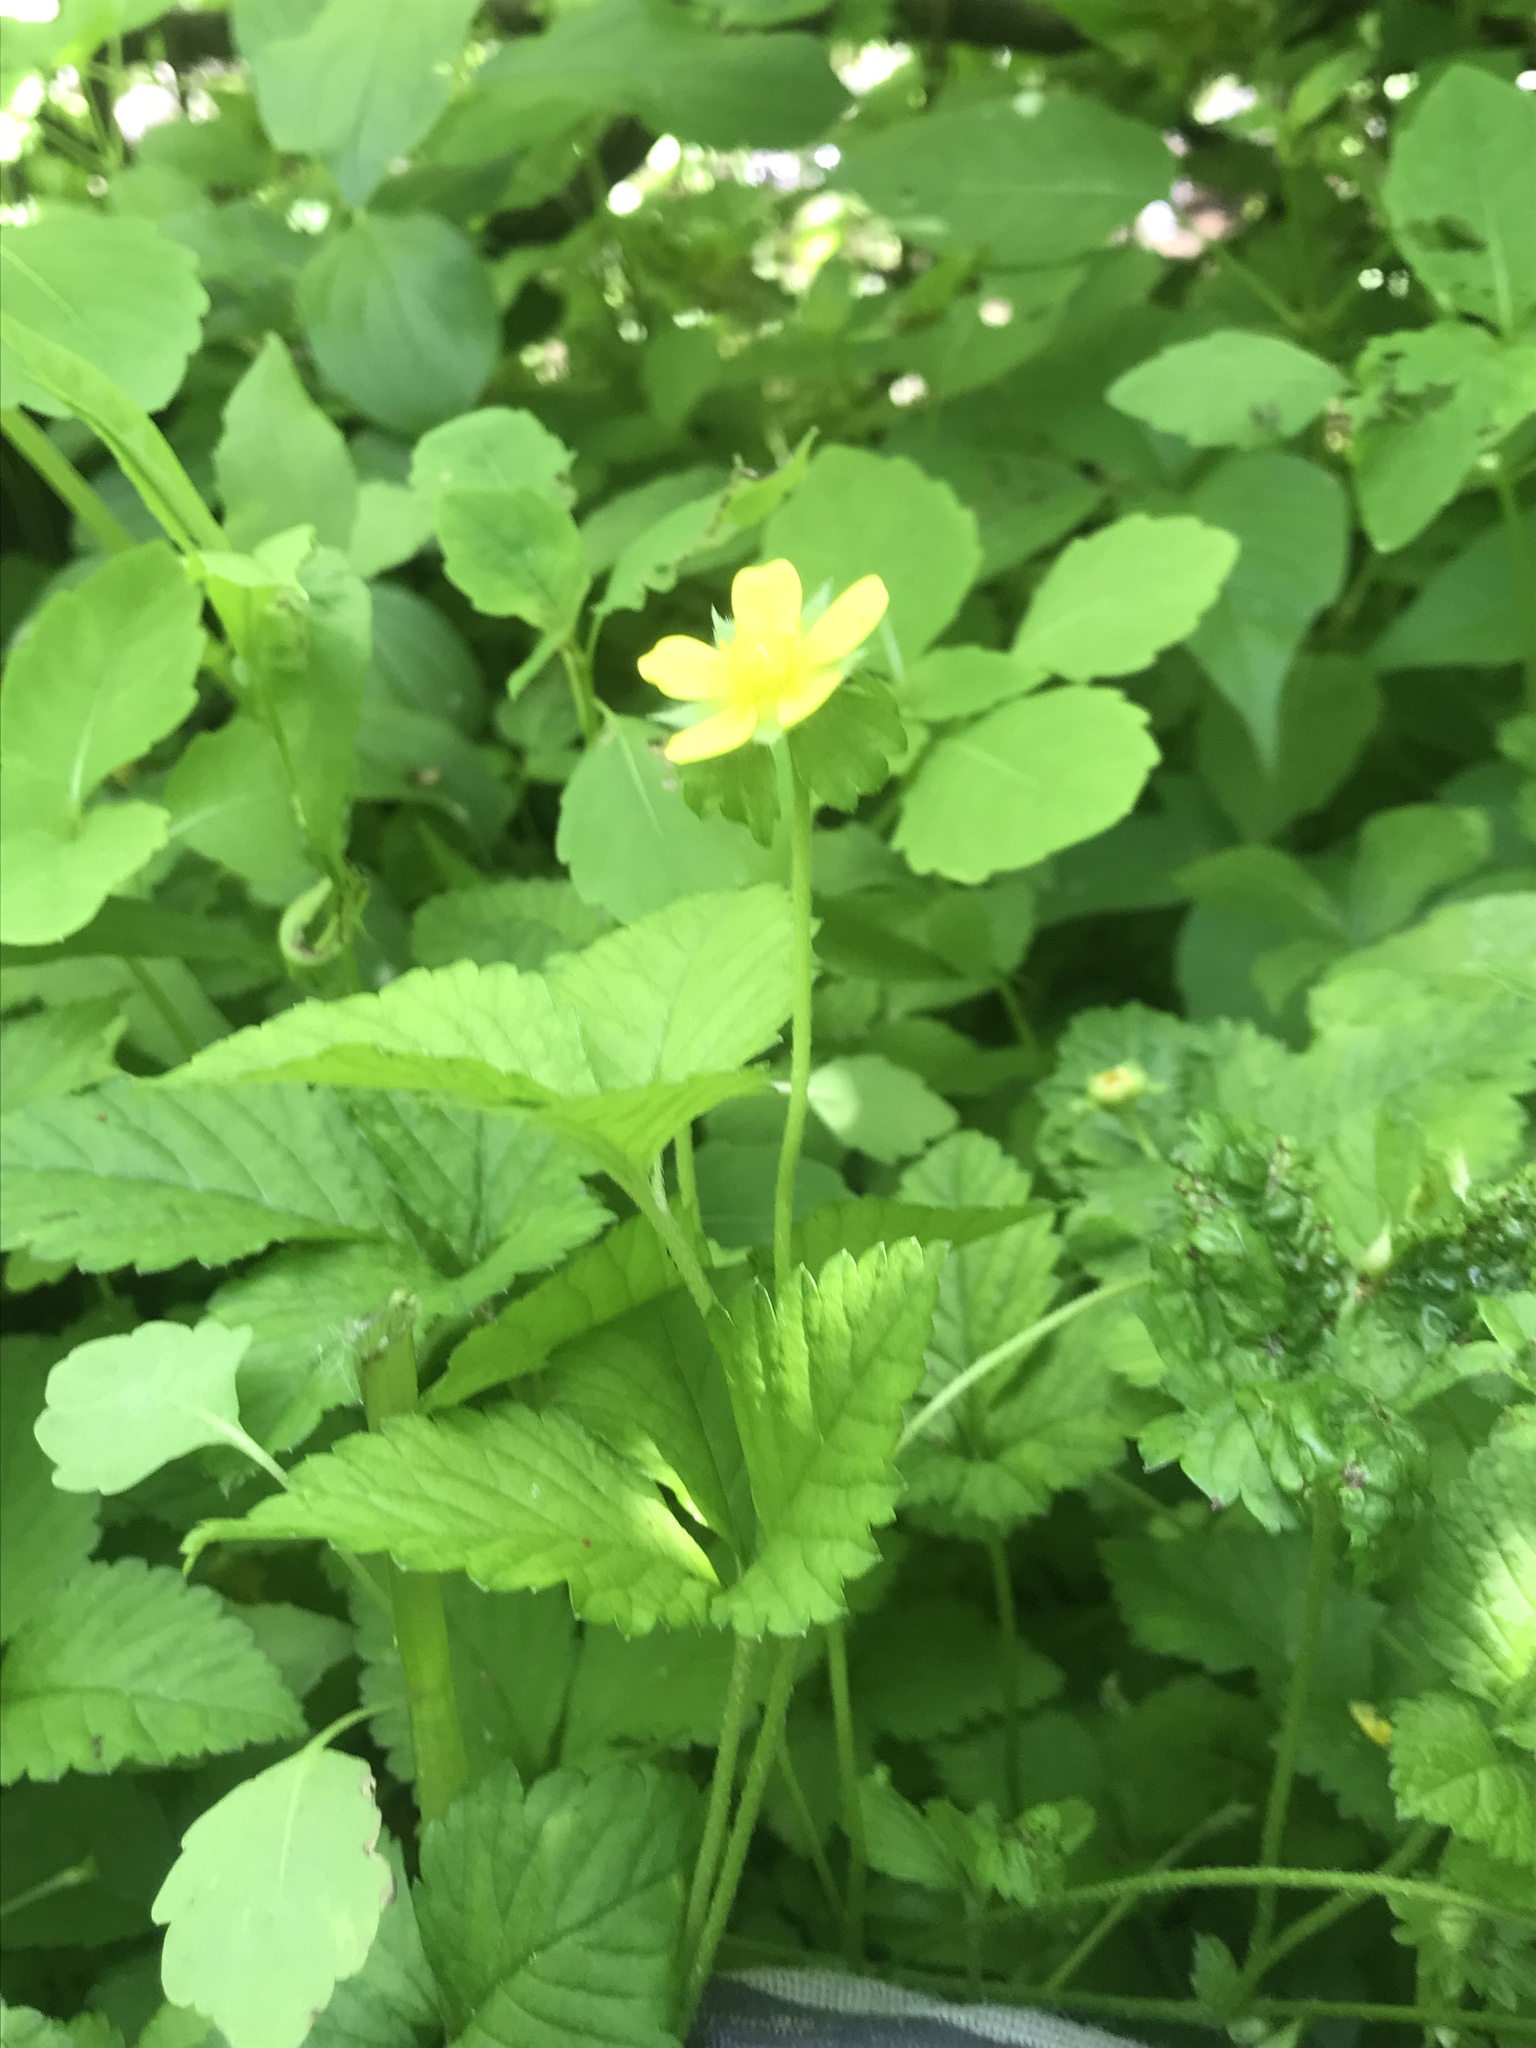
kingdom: Plantae
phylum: Tracheophyta
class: Magnoliopsida
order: Rosales
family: Rosaceae
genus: Potentilla
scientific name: Potentilla indica
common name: Yellow-flowered strawberry
